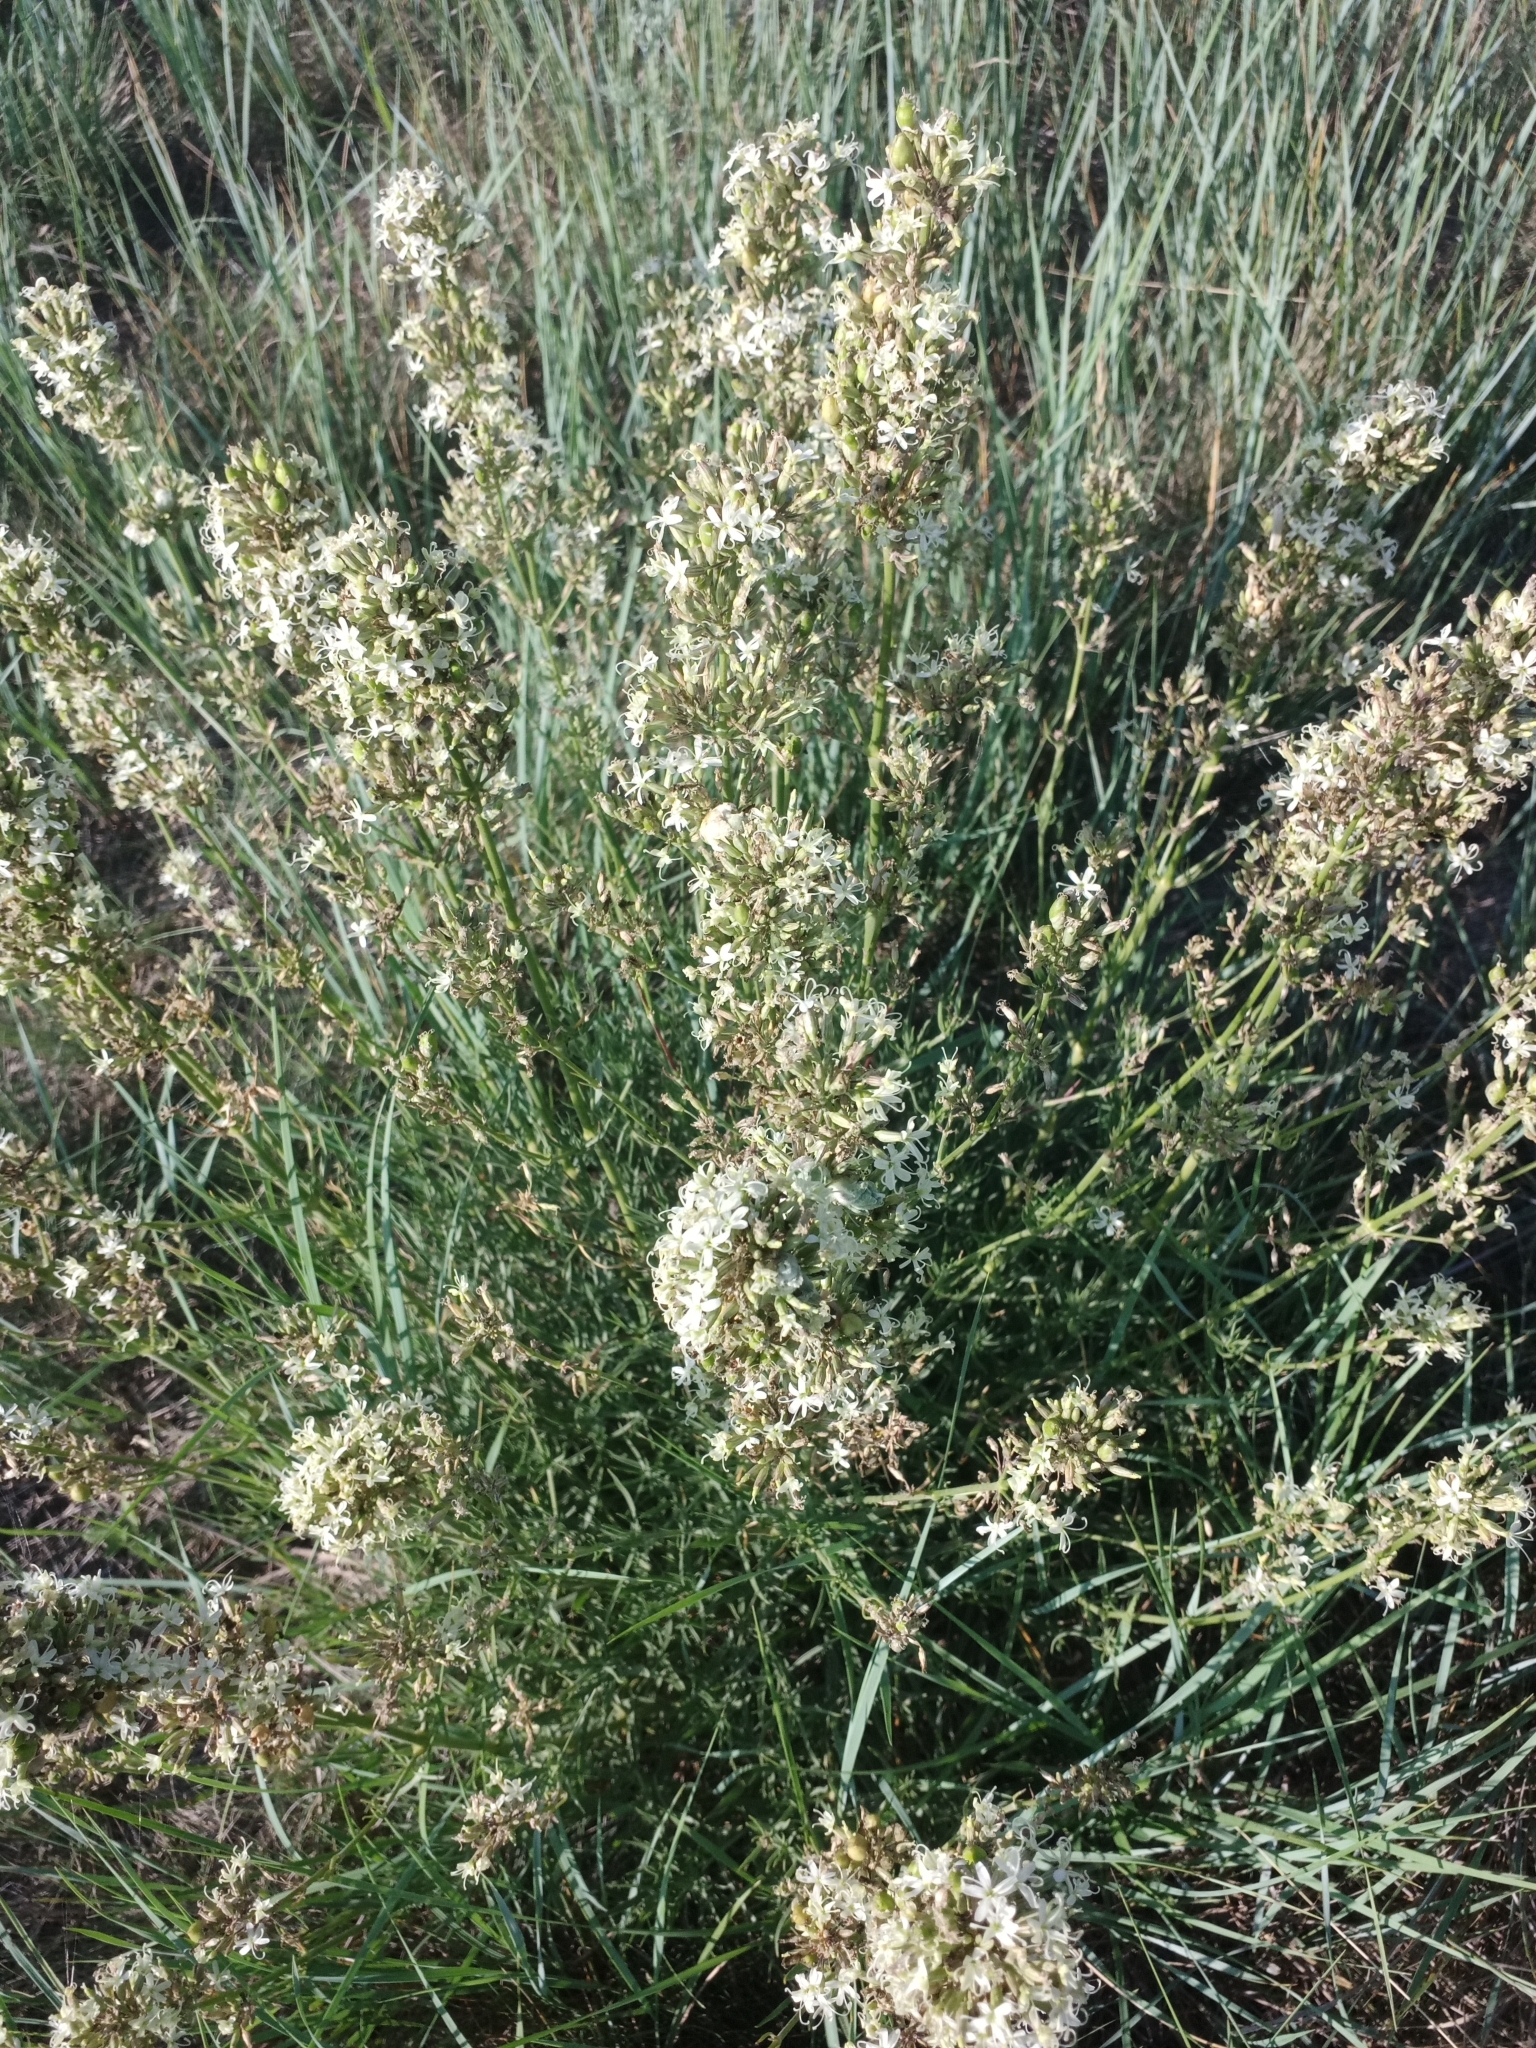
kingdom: Plantae
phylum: Tracheophyta
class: Magnoliopsida
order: Caryophyllales
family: Caryophyllaceae
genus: Silene
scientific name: Silene sibirica
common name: Siberian catchfly
